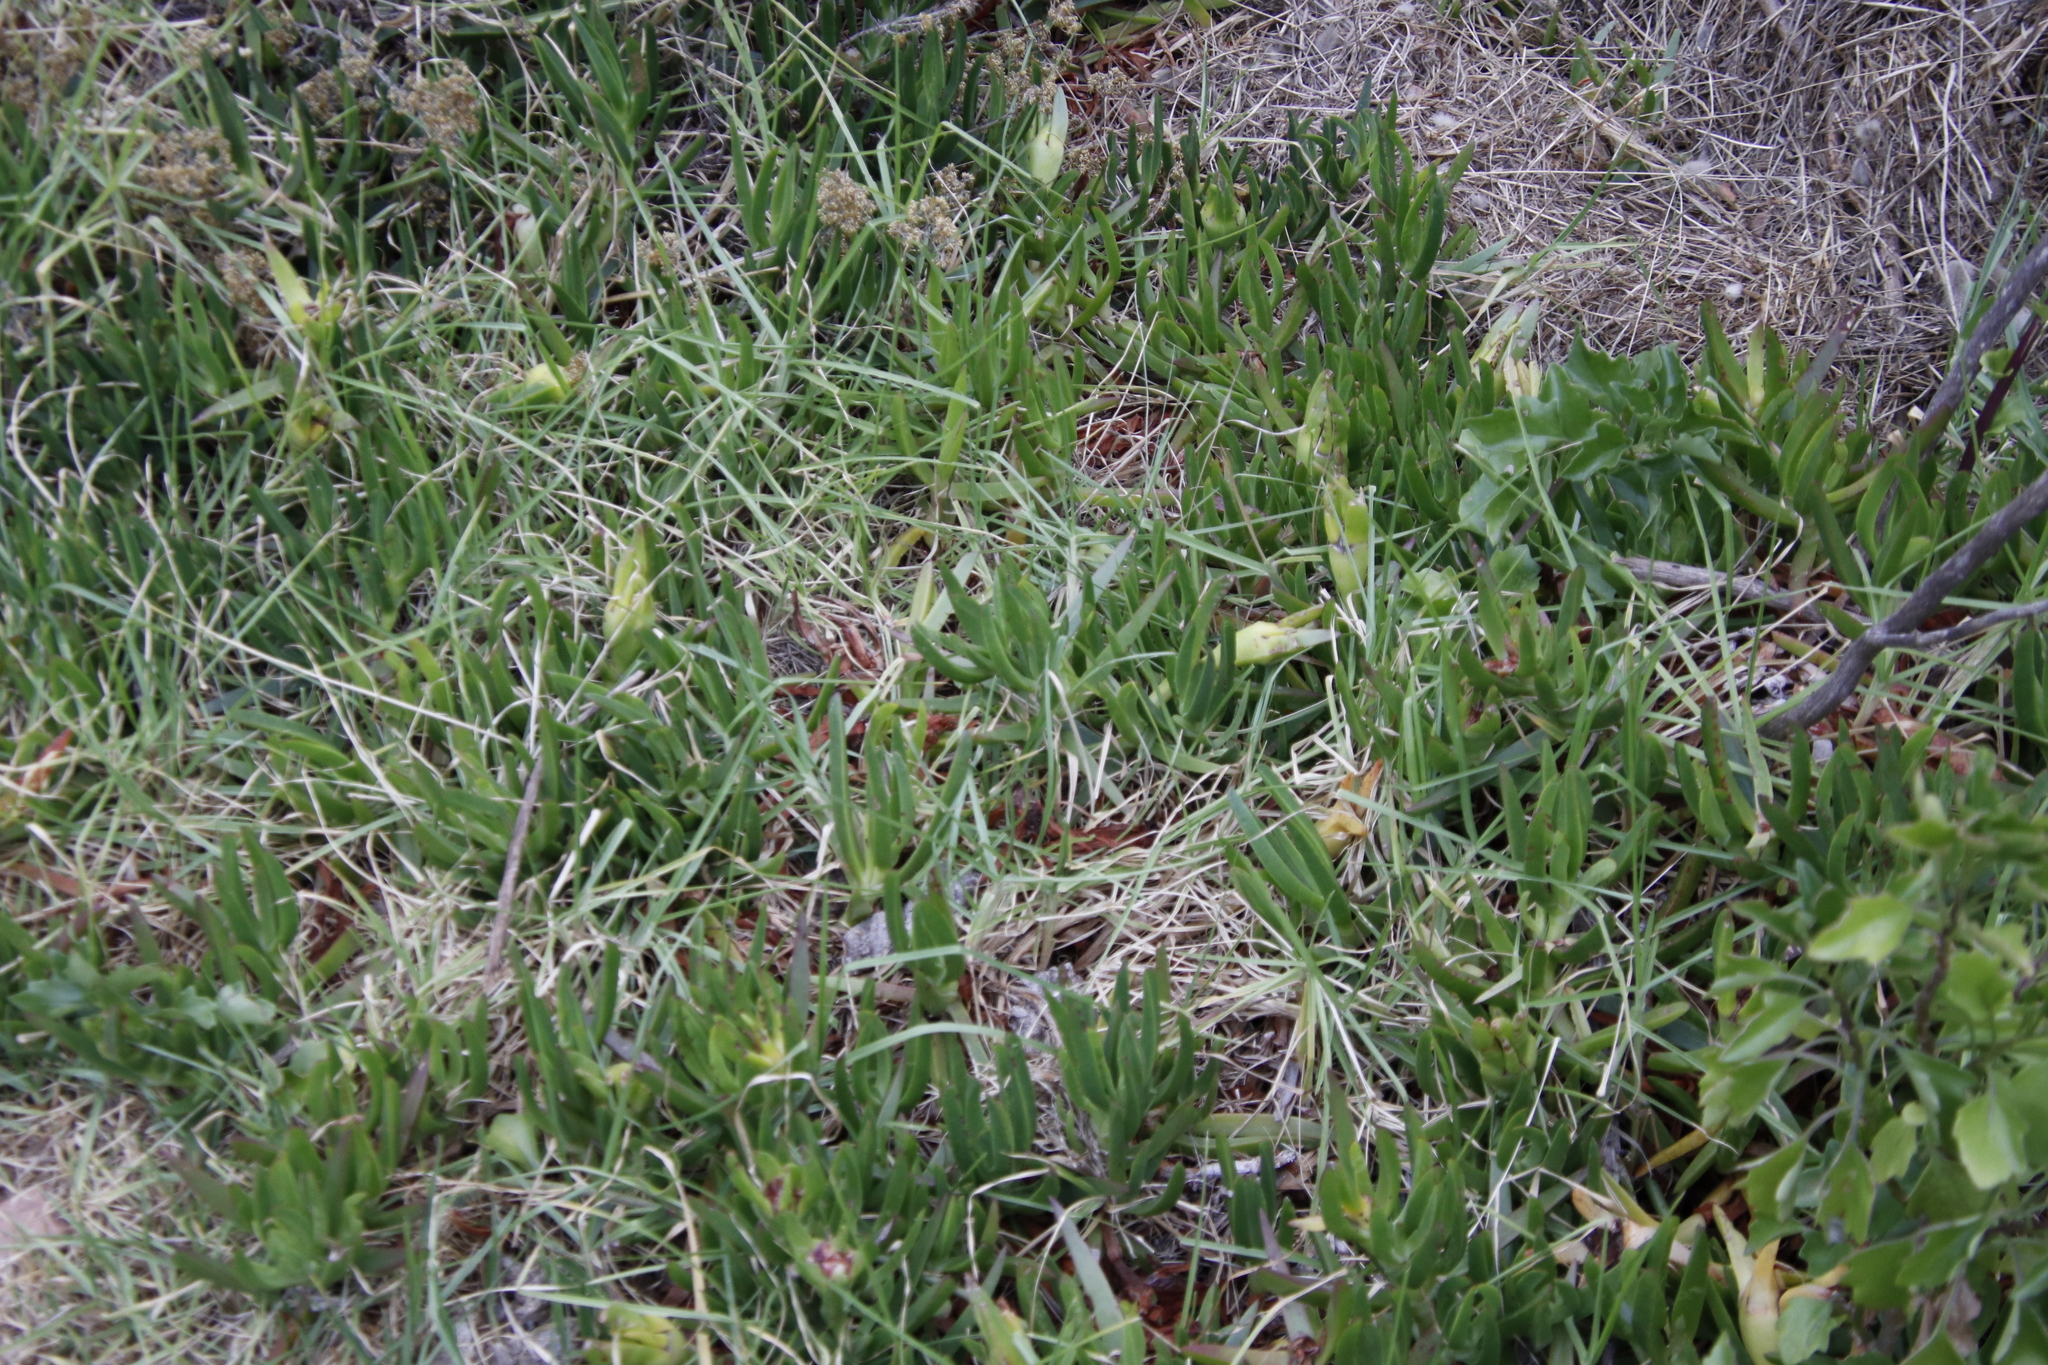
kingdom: Plantae
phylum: Tracheophyta
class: Magnoliopsida
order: Caryophyllales
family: Aizoaceae
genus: Carpobrotus
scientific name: Carpobrotus edulis
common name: Hottentot-fig
